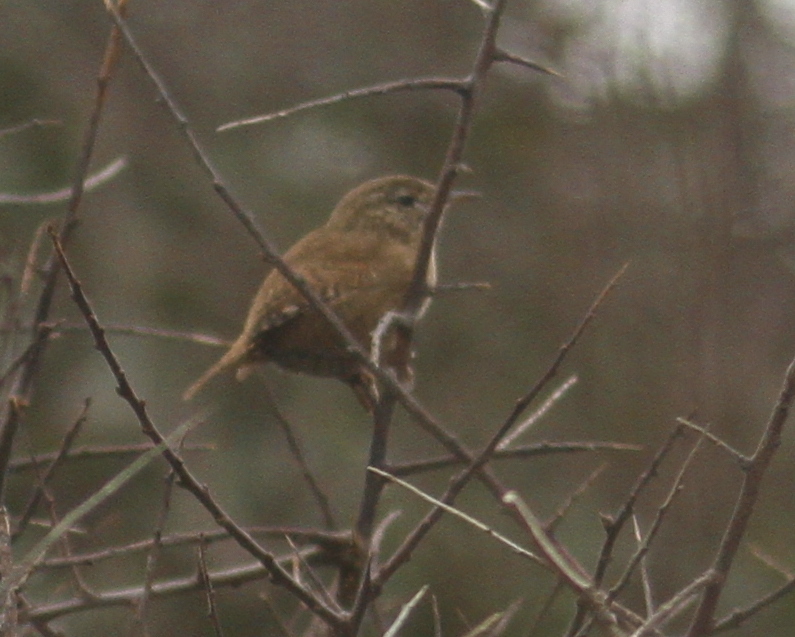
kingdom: Animalia
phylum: Chordata
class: Aves
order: Passeriformes
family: Troglodytidae
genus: Troglodytes
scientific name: Troglodytes troglodytes
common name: Eurasian wren
